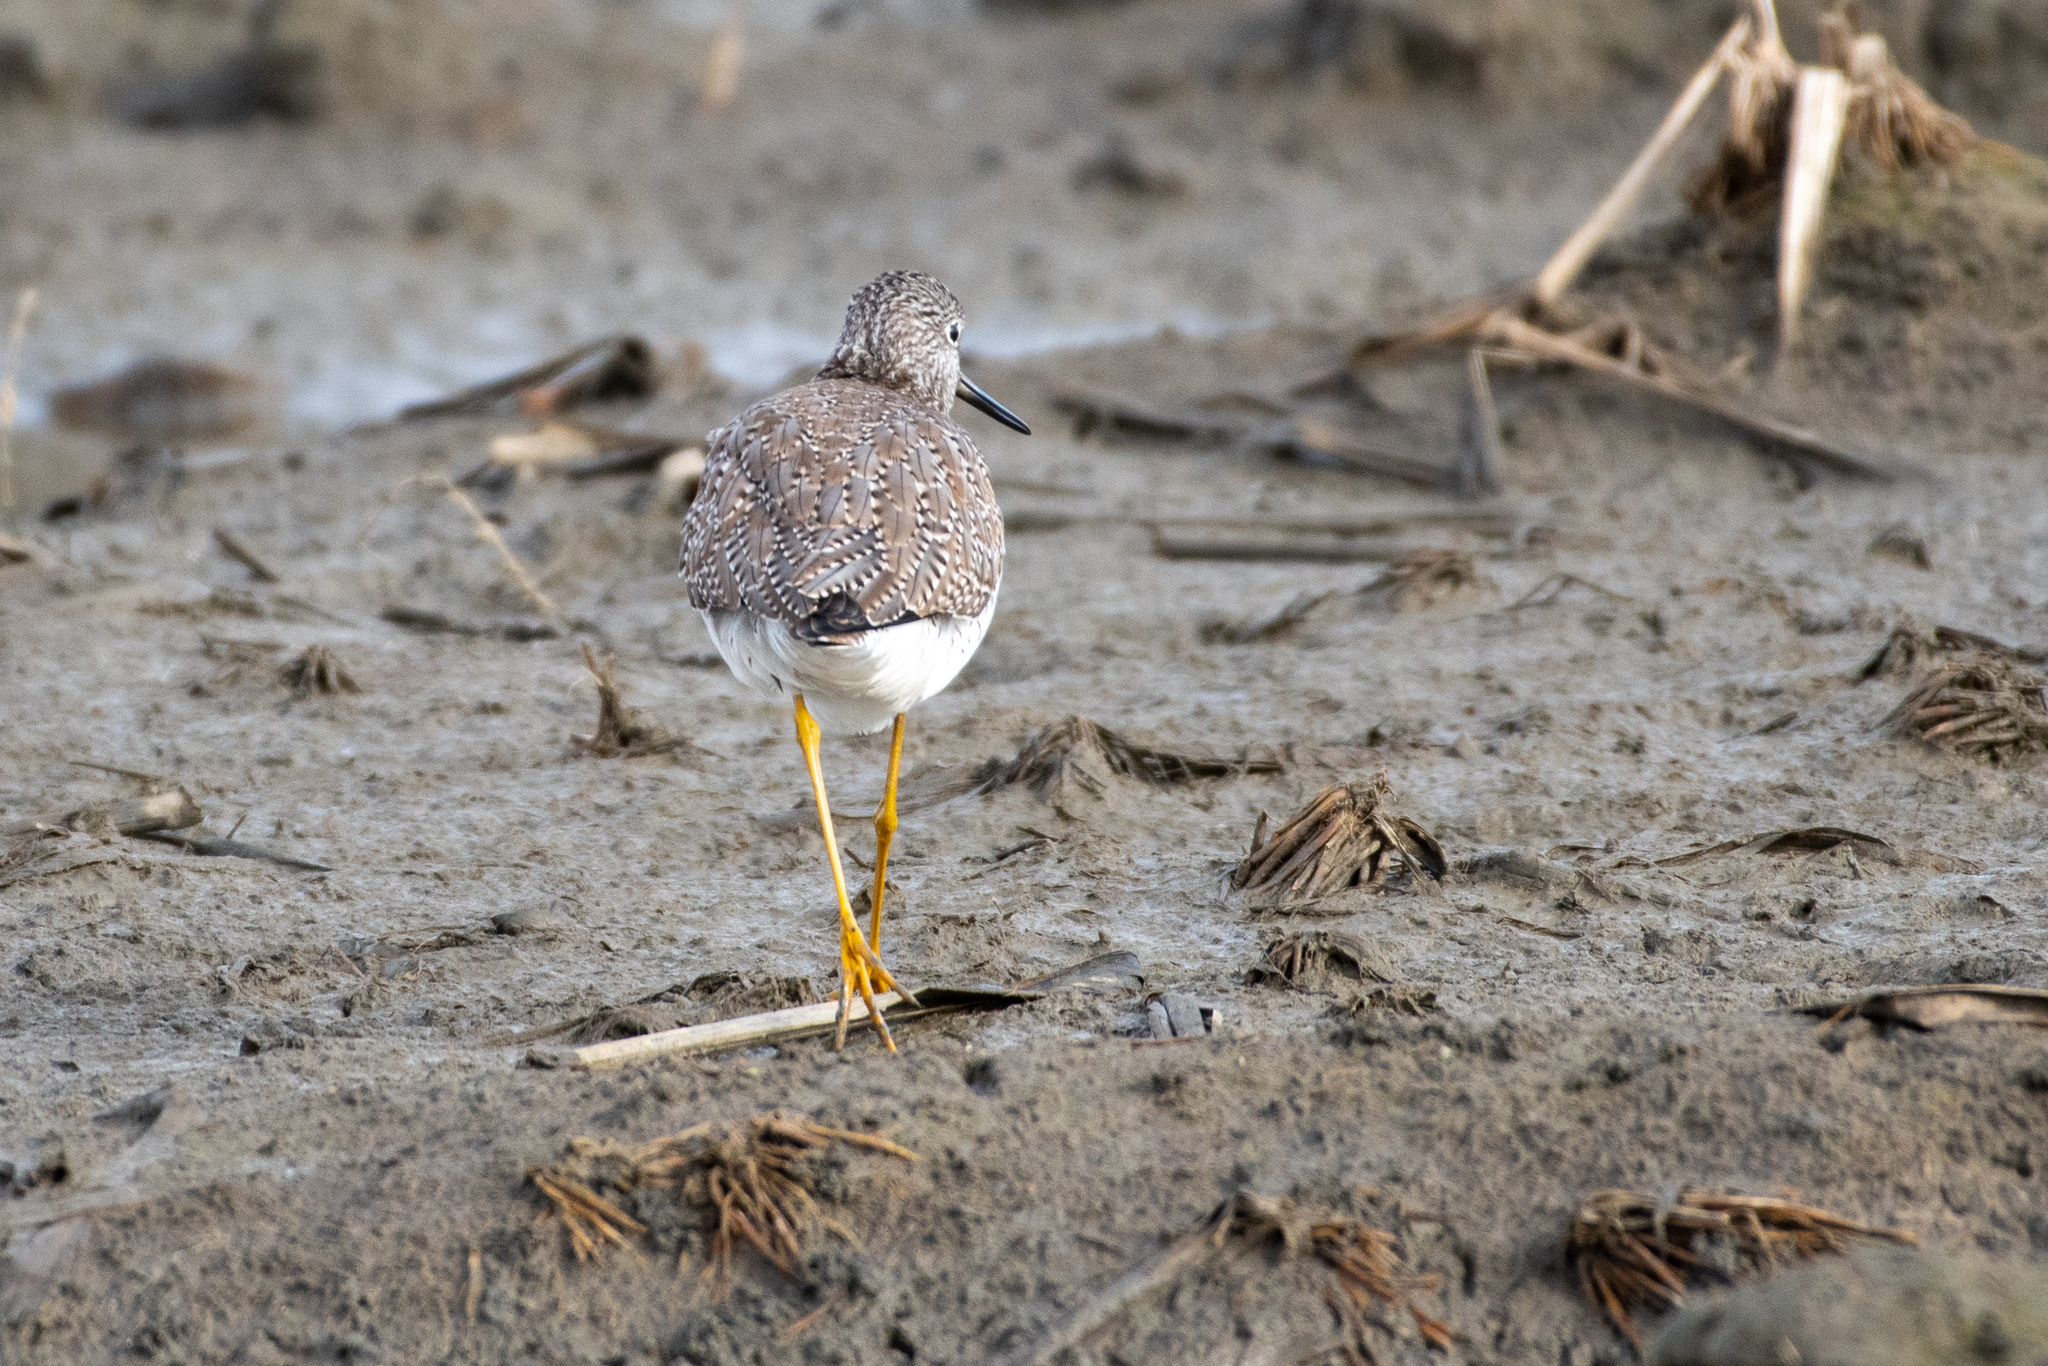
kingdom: Animalia
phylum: Chordata
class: Aves
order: Charadriiformes
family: Scolopacidae
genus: Tringa
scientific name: Tringa melanoleuca
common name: Greater yellowlegs
